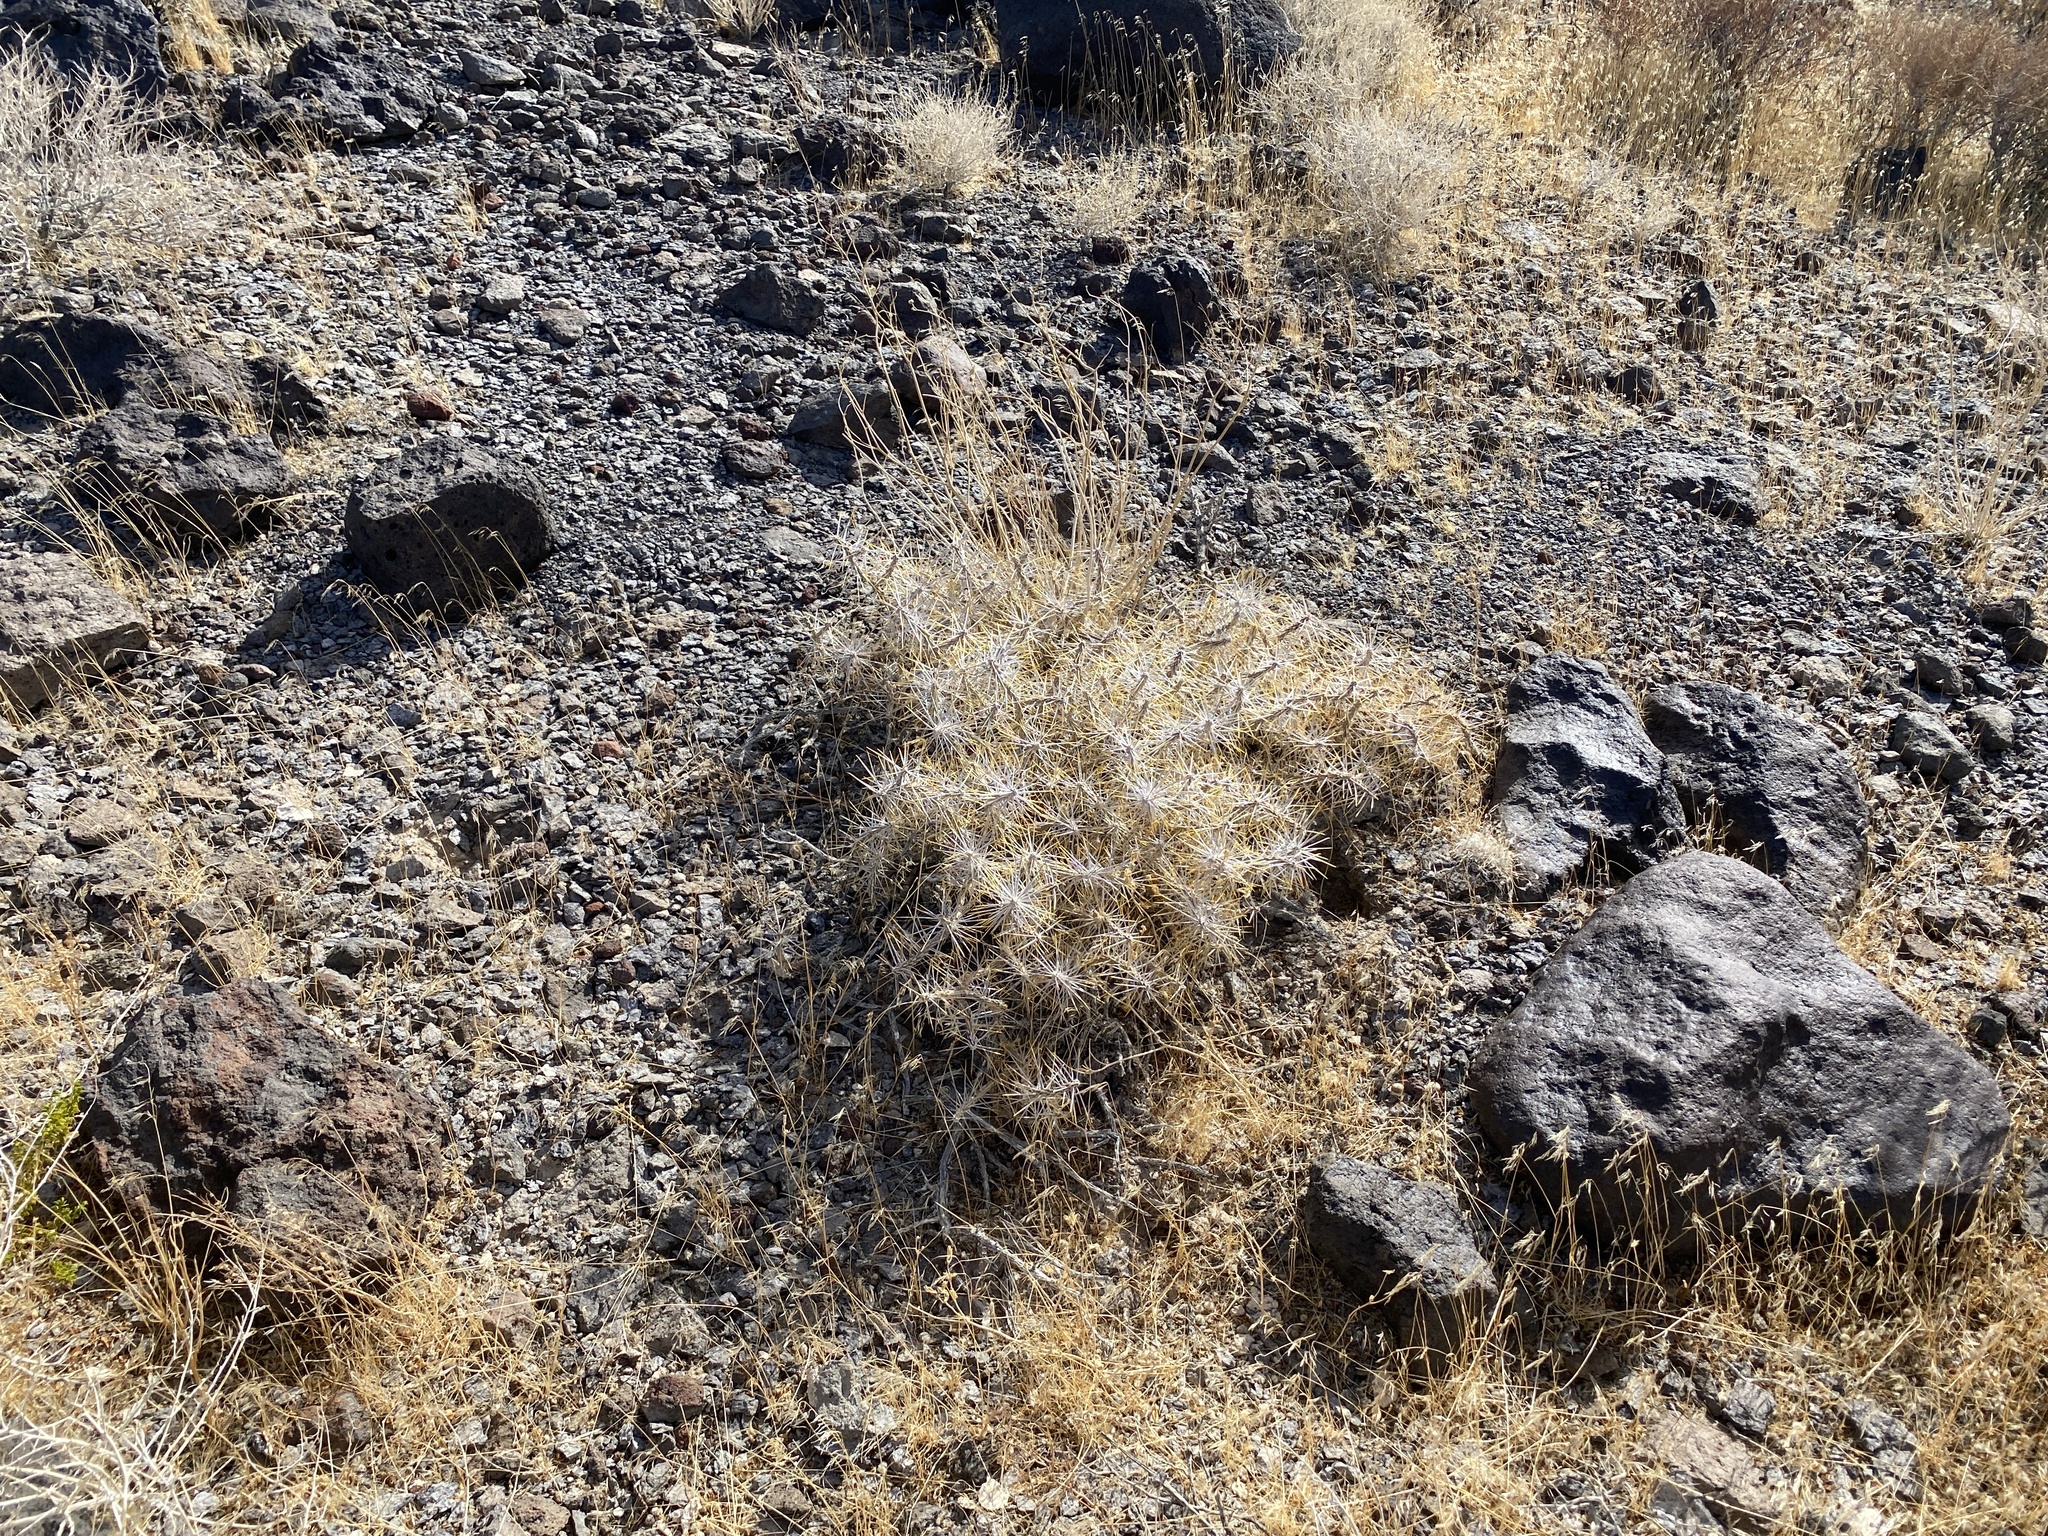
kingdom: Plantae
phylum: Tracheophyta
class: Magnoliopsida
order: Caryophyllales
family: Cactaceae
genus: Cylindropuntia
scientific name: Cylindropuntia ramosissima
